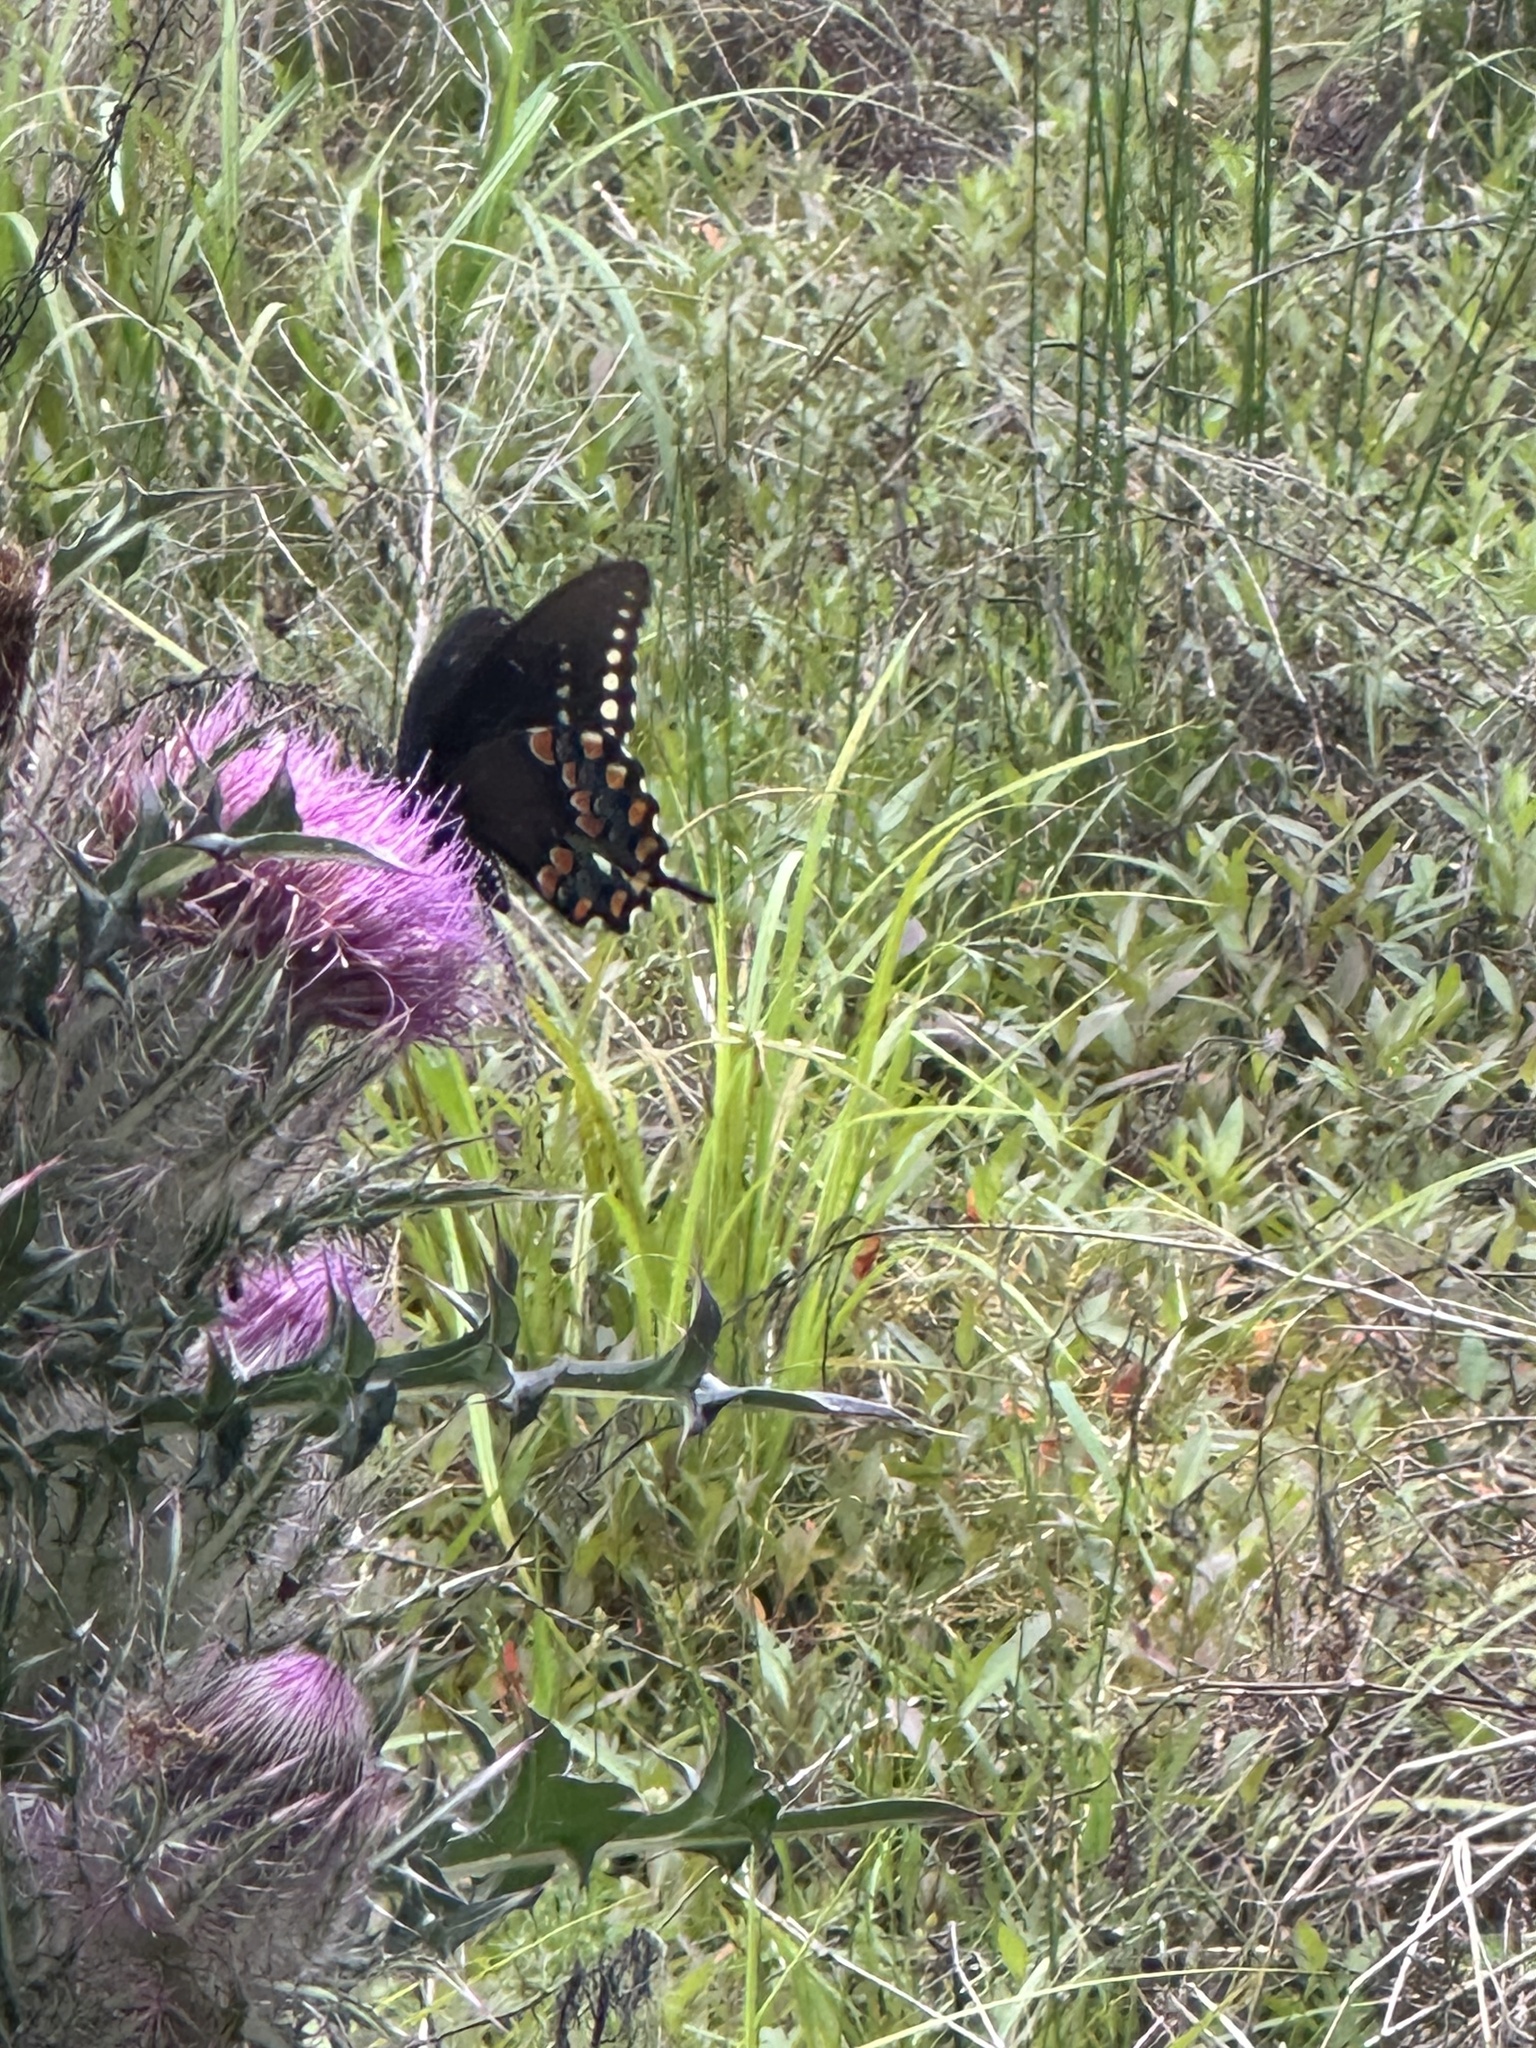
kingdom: Animalia
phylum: Arthropoda
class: Insecta
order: Lepidoptera
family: Papilionidae
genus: Papilio
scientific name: Papilio troilus
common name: Spicebush swallowtail
